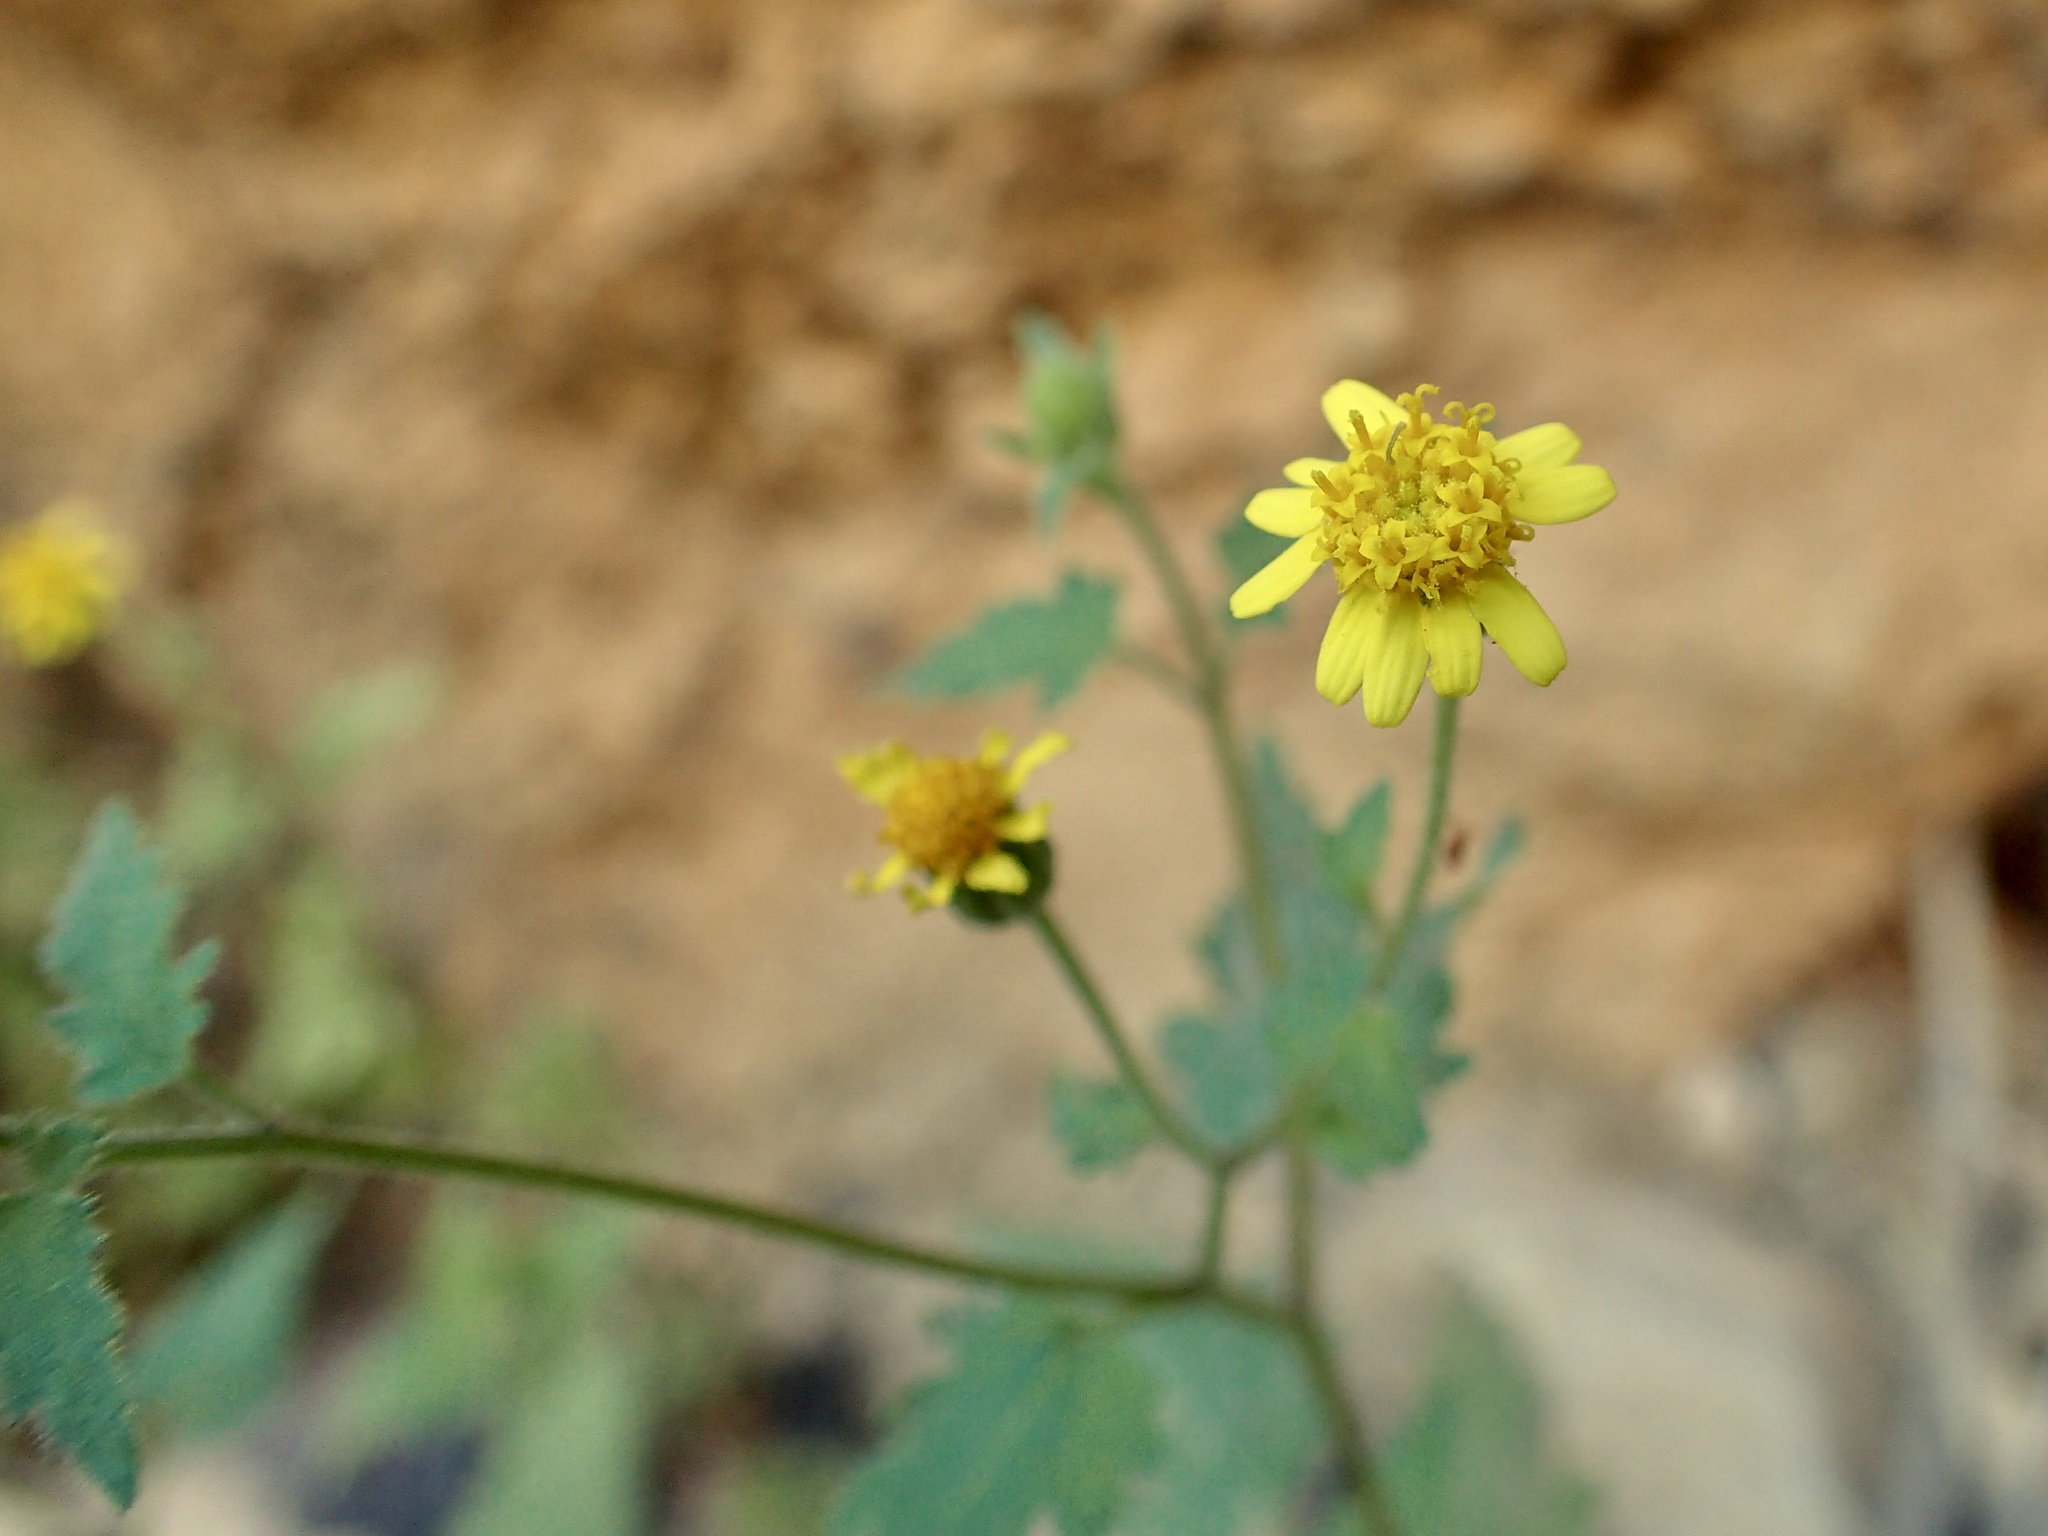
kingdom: Plantae
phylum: Tracheophyta
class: Magnoliopsida
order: Asterales
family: Asteraceae
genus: Perityle
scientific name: Perityle californica
